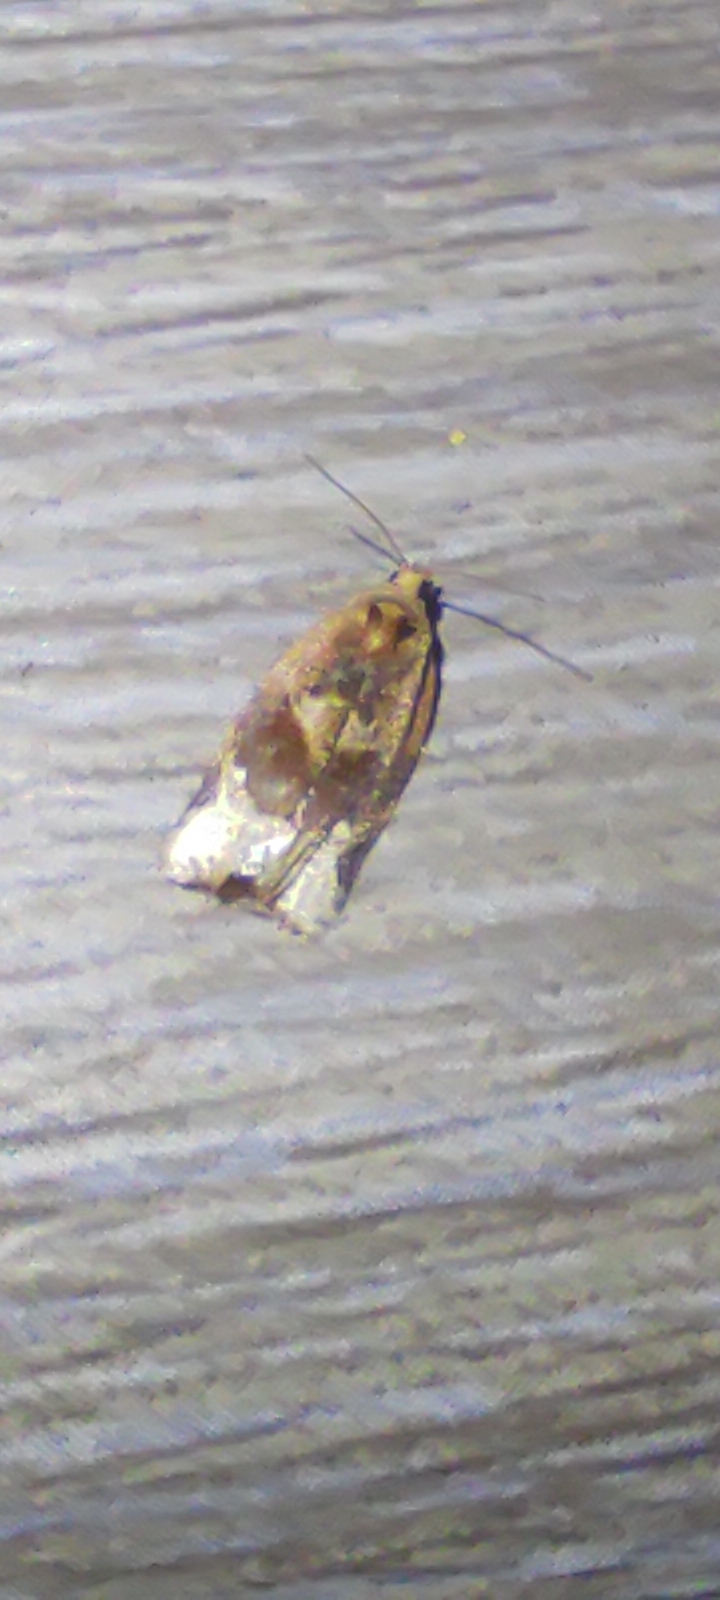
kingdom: Animalia
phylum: Arthropoda
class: Insecta
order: Lepidoptera
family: Tortricidae
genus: Argyrotaenia
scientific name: Argyrotaenia velutinana
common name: Red-banded leafroller moth
